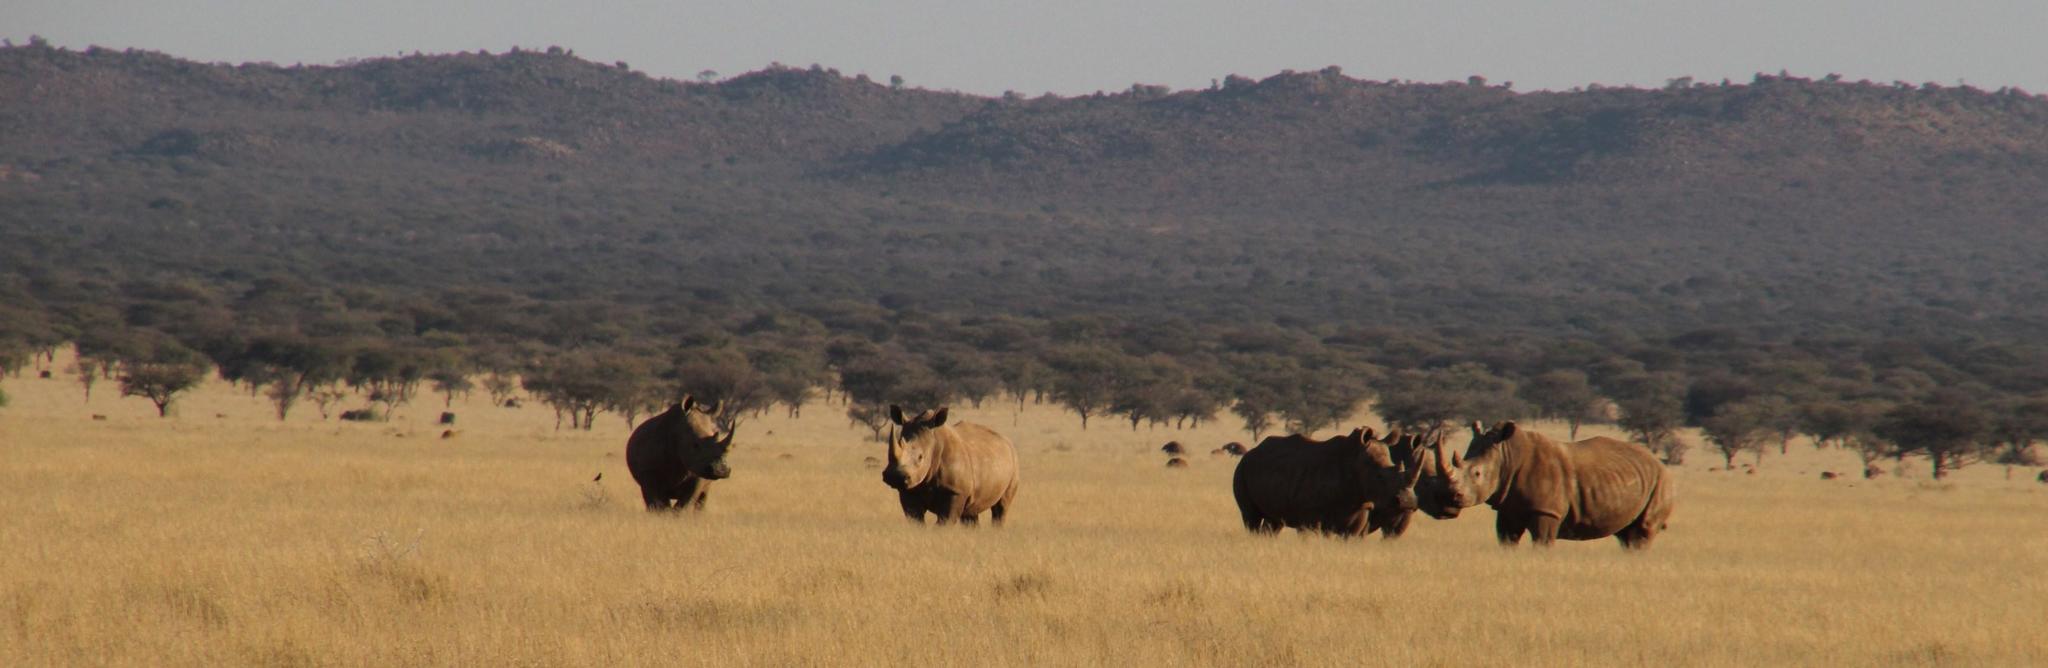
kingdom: Animalia
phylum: Chordata
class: Mammalia
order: Perissodactyla
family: Rhinocerotidae
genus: Ceratotherium
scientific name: Ceratotherium simum
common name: White rhinoceros
